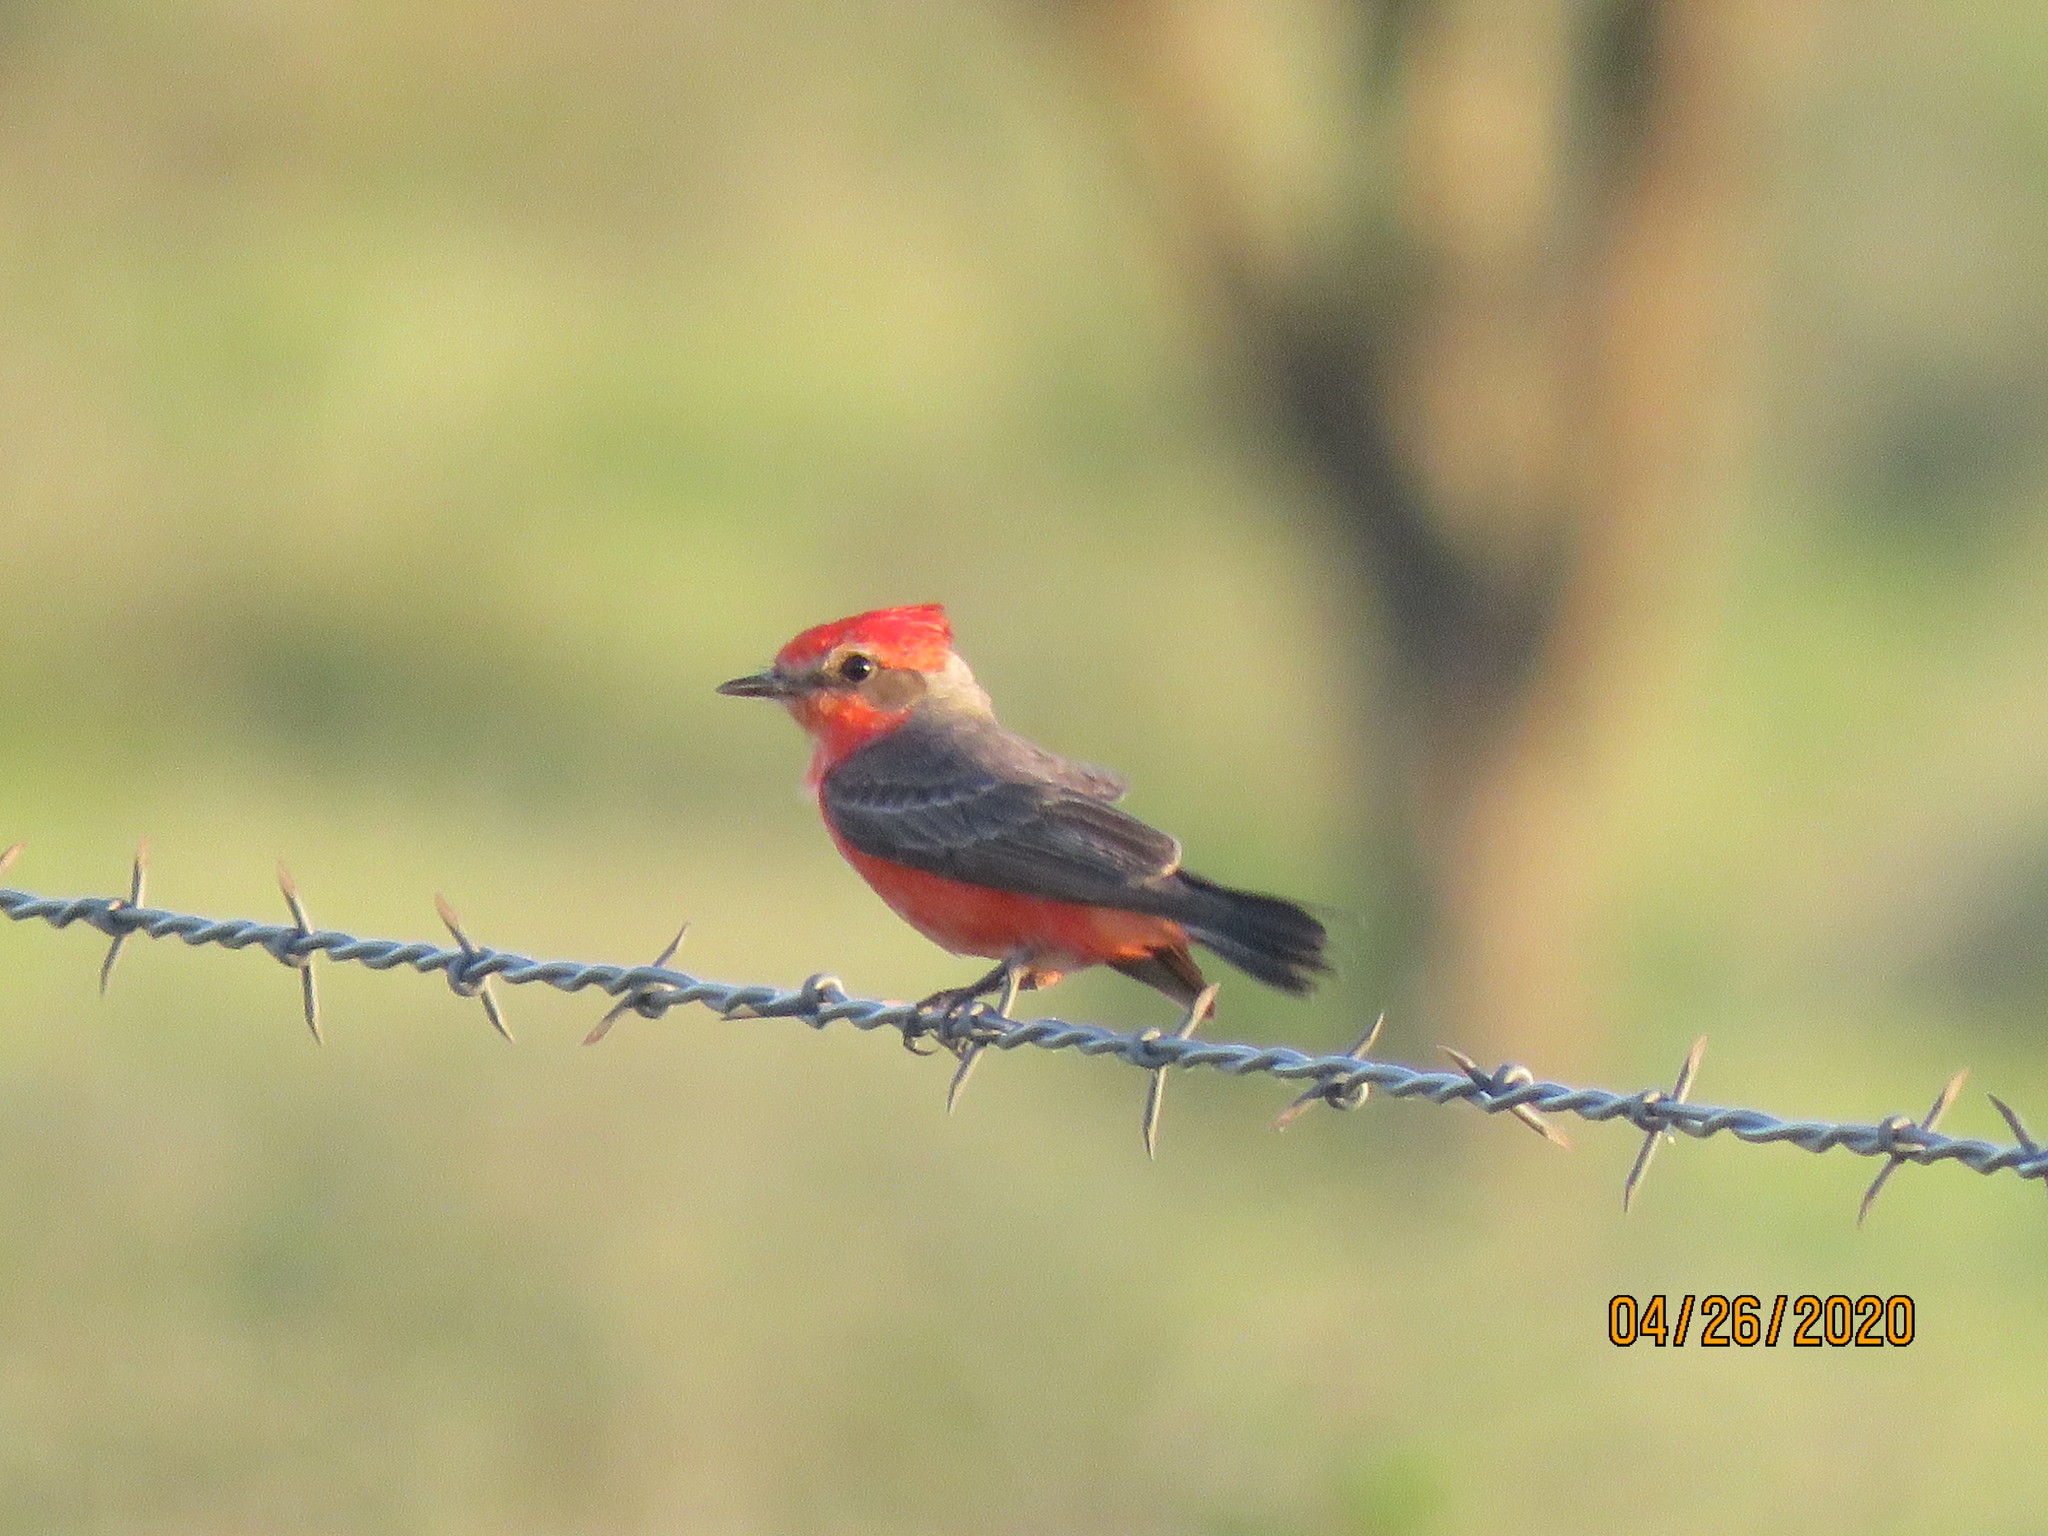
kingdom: Animalia
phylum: Chordata
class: Aves
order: Passeriformes
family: Tyrannidae
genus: Pyrocephalus
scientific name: Pyrocephalus rubinus
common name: Vermilion flycatcher
